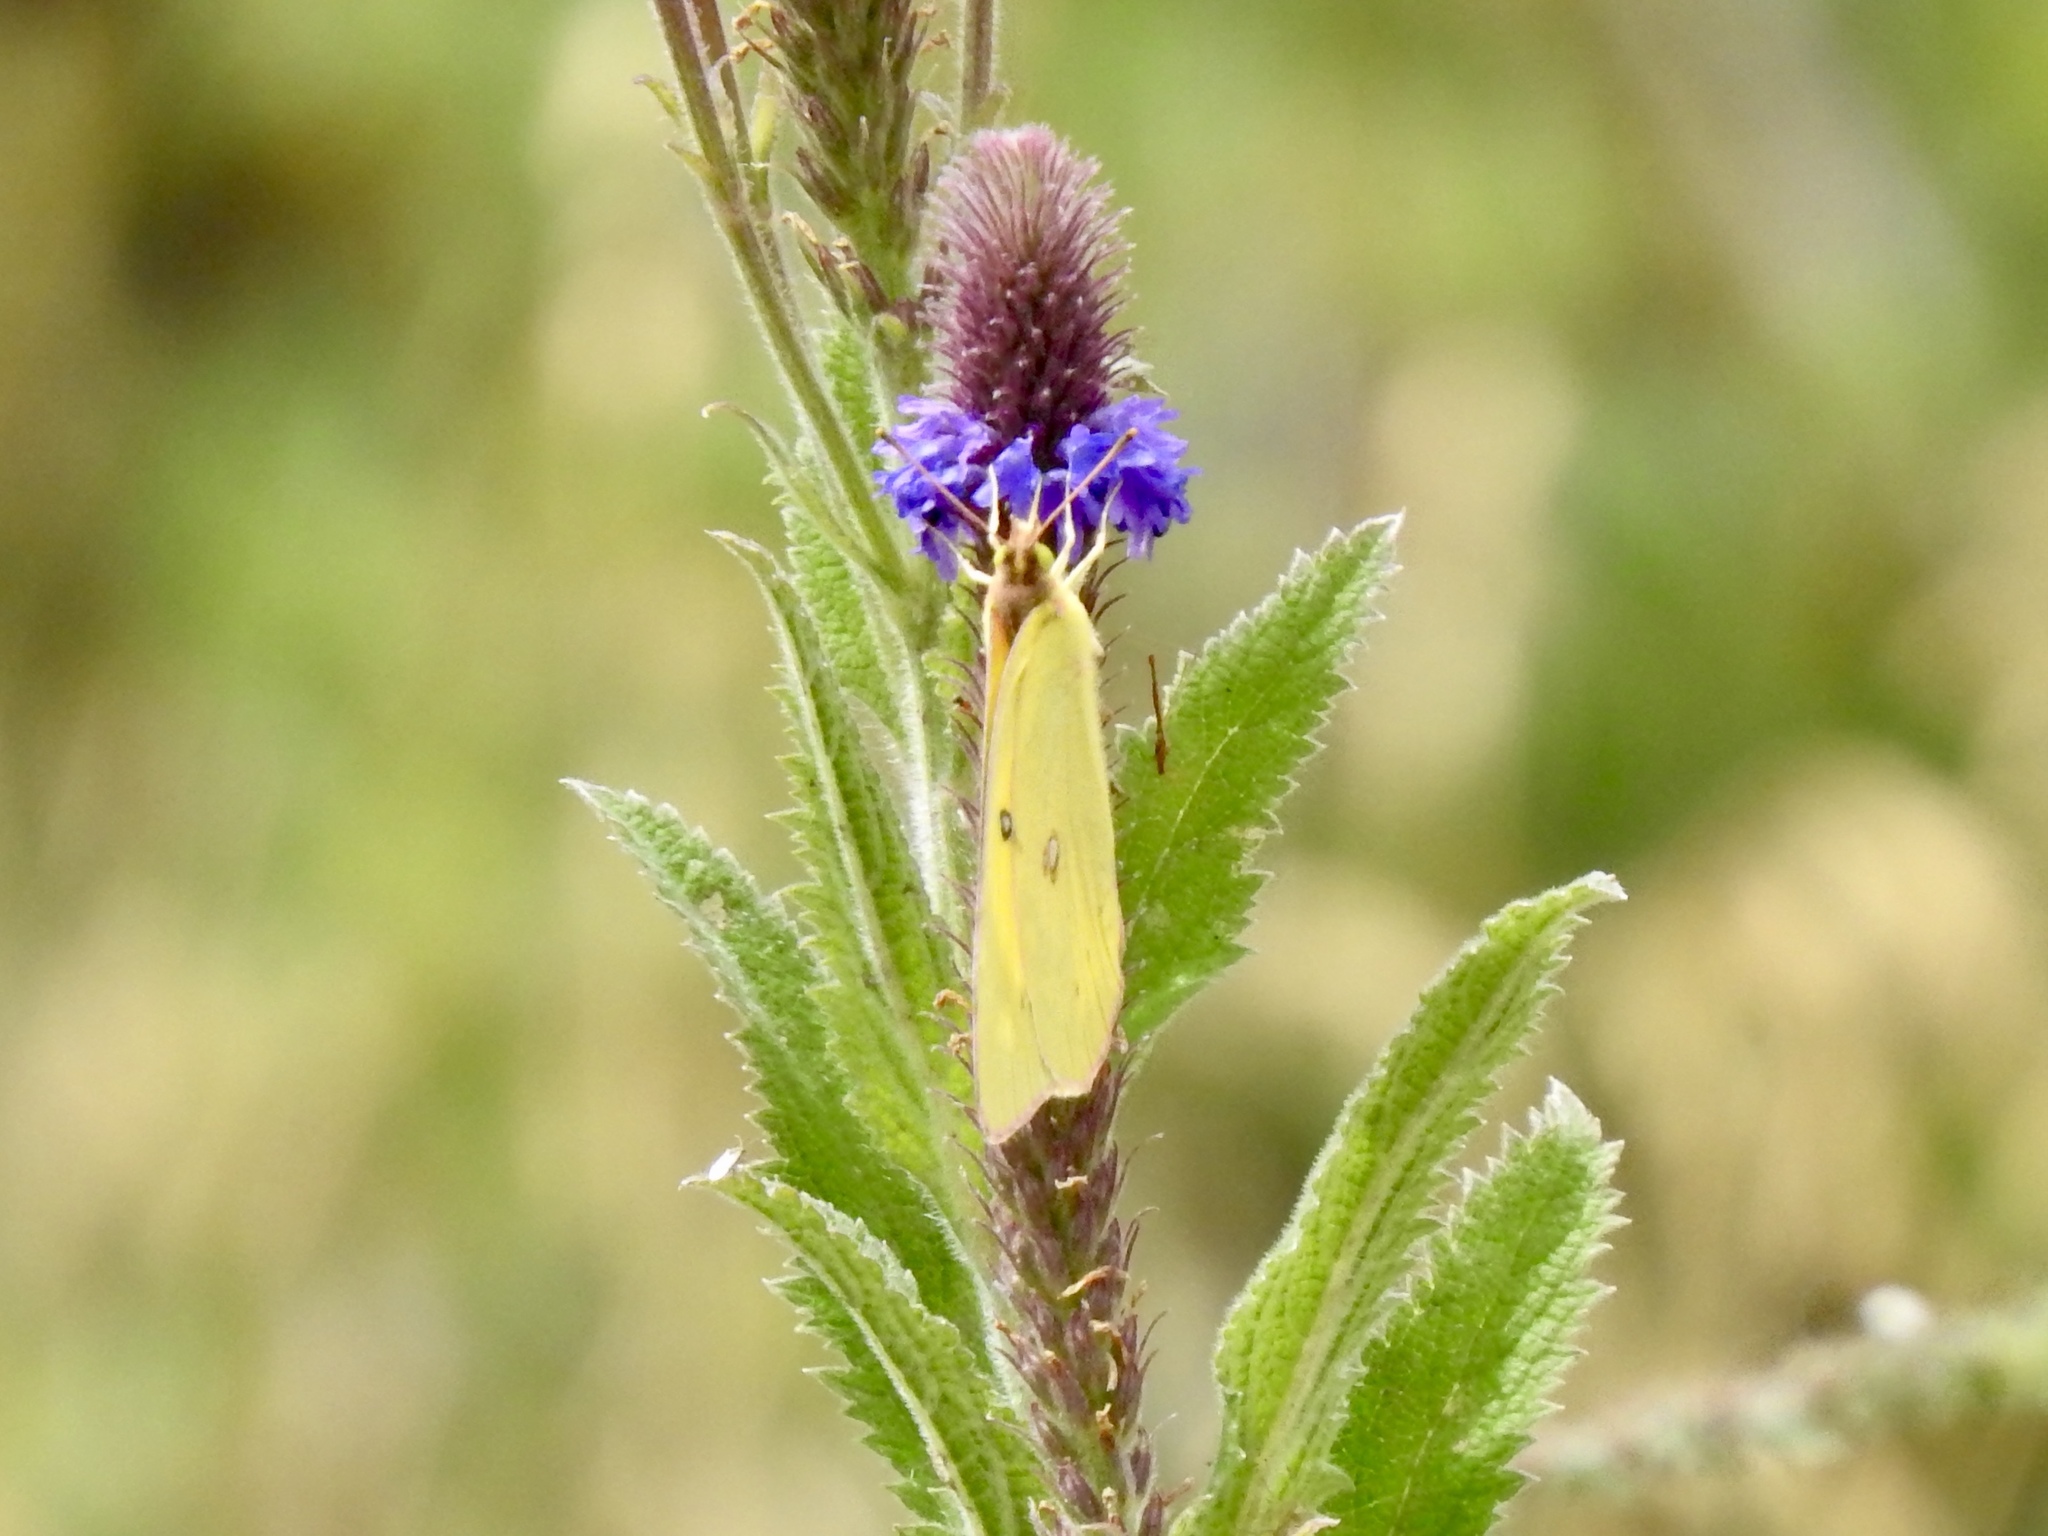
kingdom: Animalia
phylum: Arthropoda
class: Insecta
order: Lepidoptera
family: Pieridae
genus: Colias
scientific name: Colias eurytheme
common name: Alfalfa butterfly
